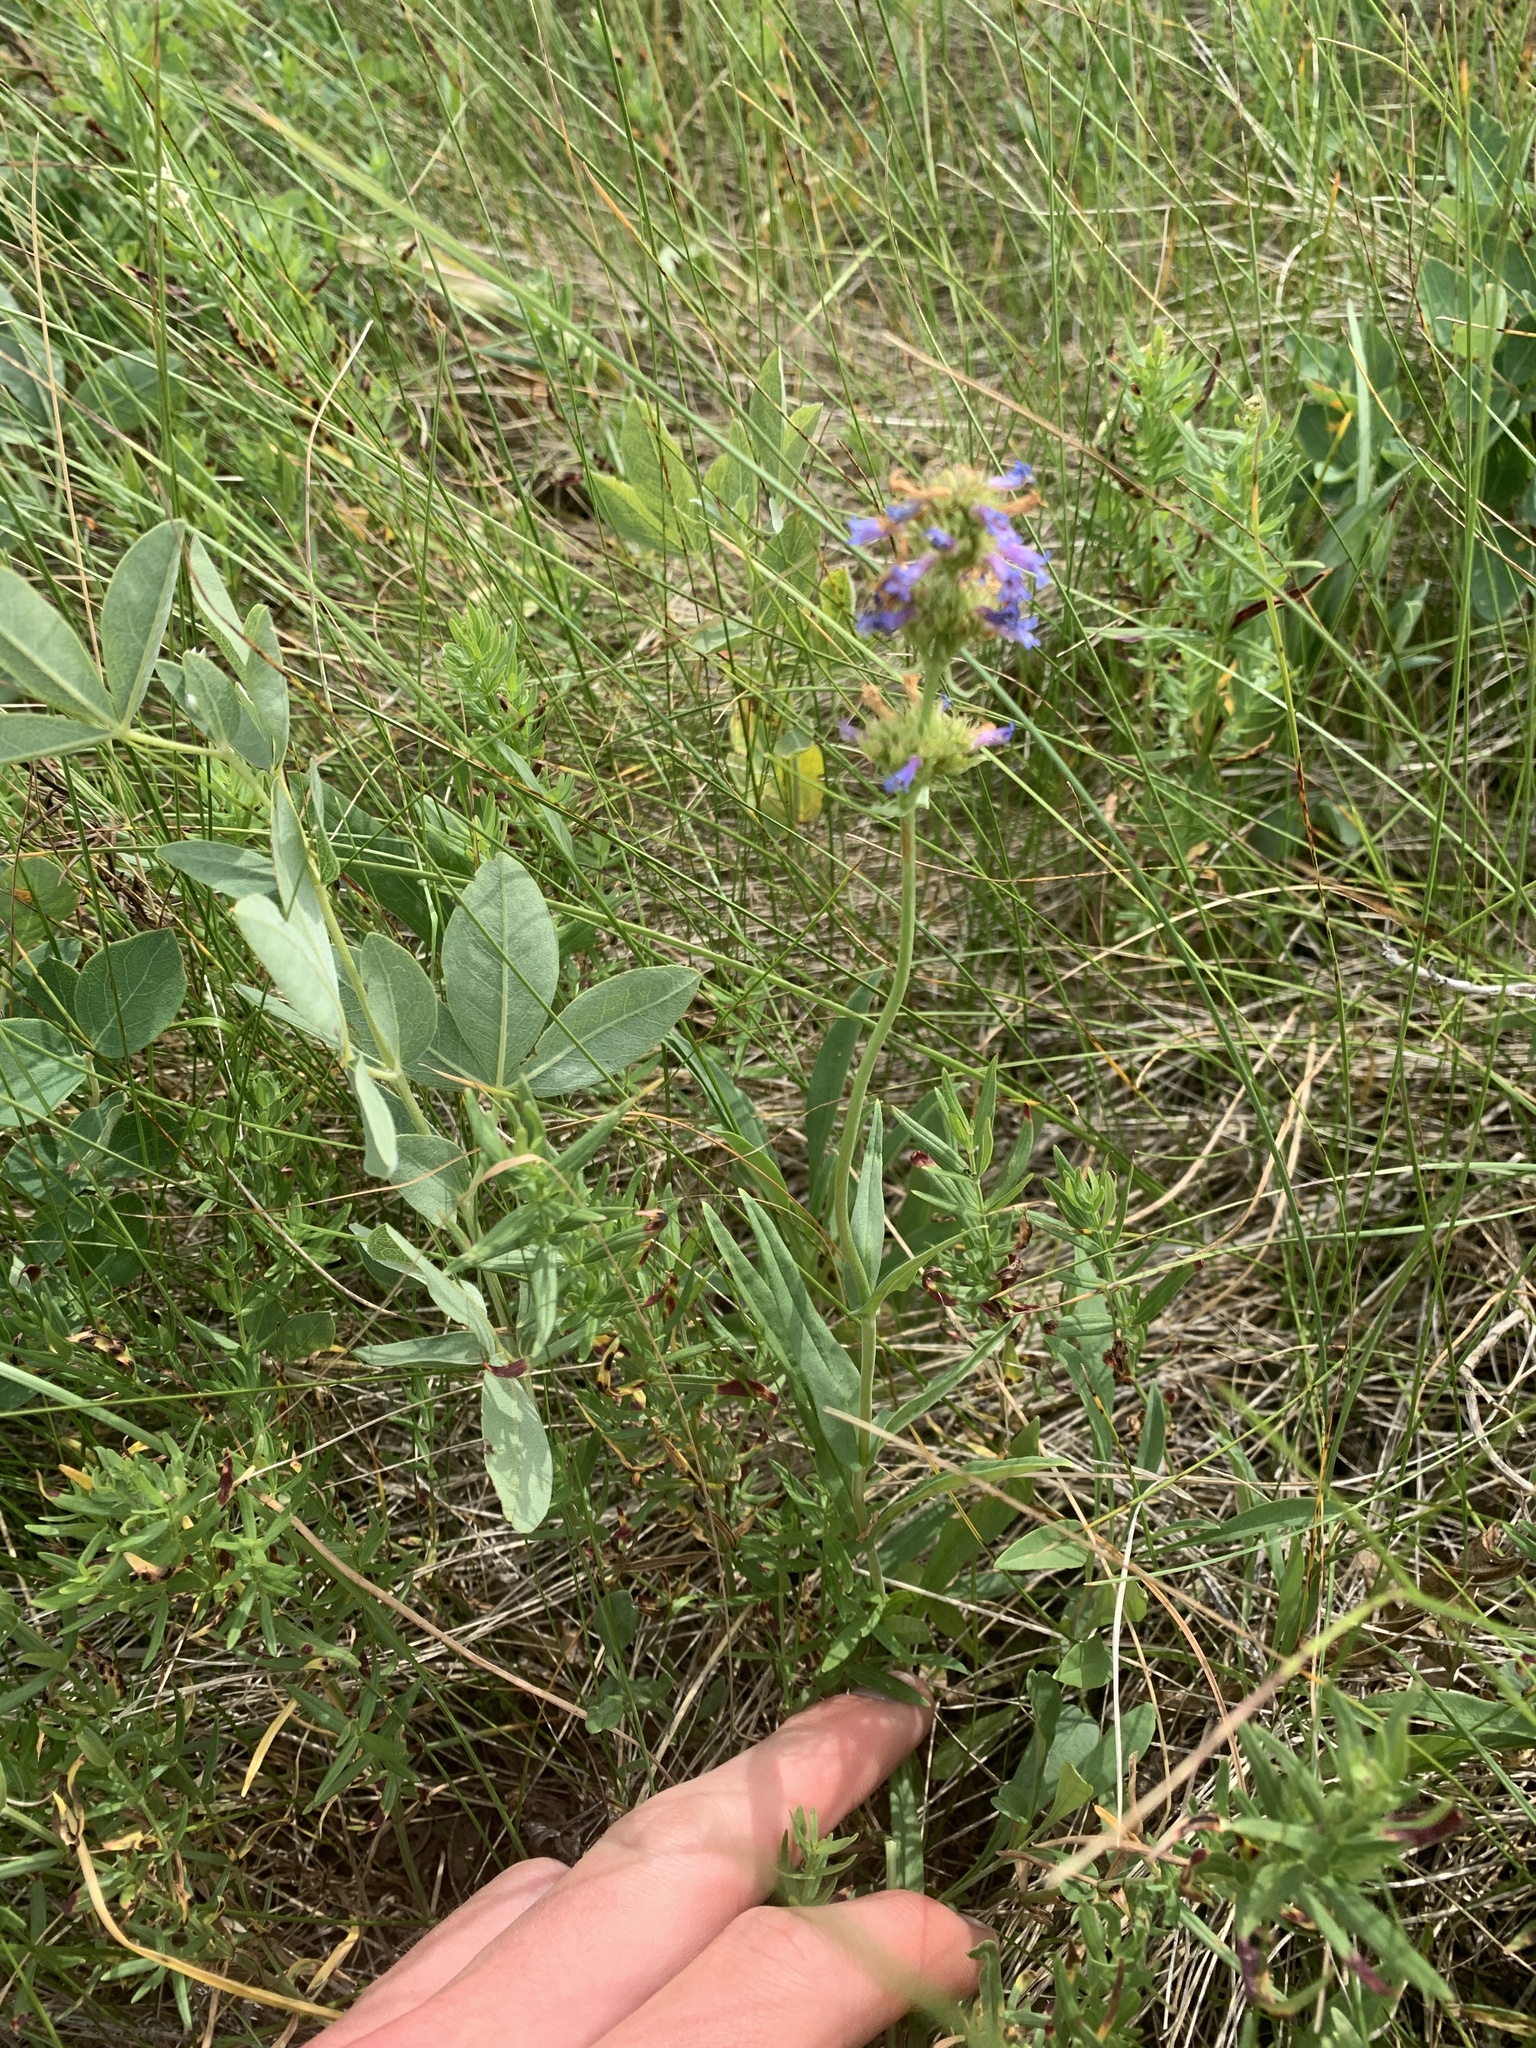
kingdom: Plantae
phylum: Tracheophyta
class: Magnoliopsida
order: Lamiales
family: Plantaginaceae
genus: Penstemon
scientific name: Penstemon procerus
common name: Small-flower penstemon
